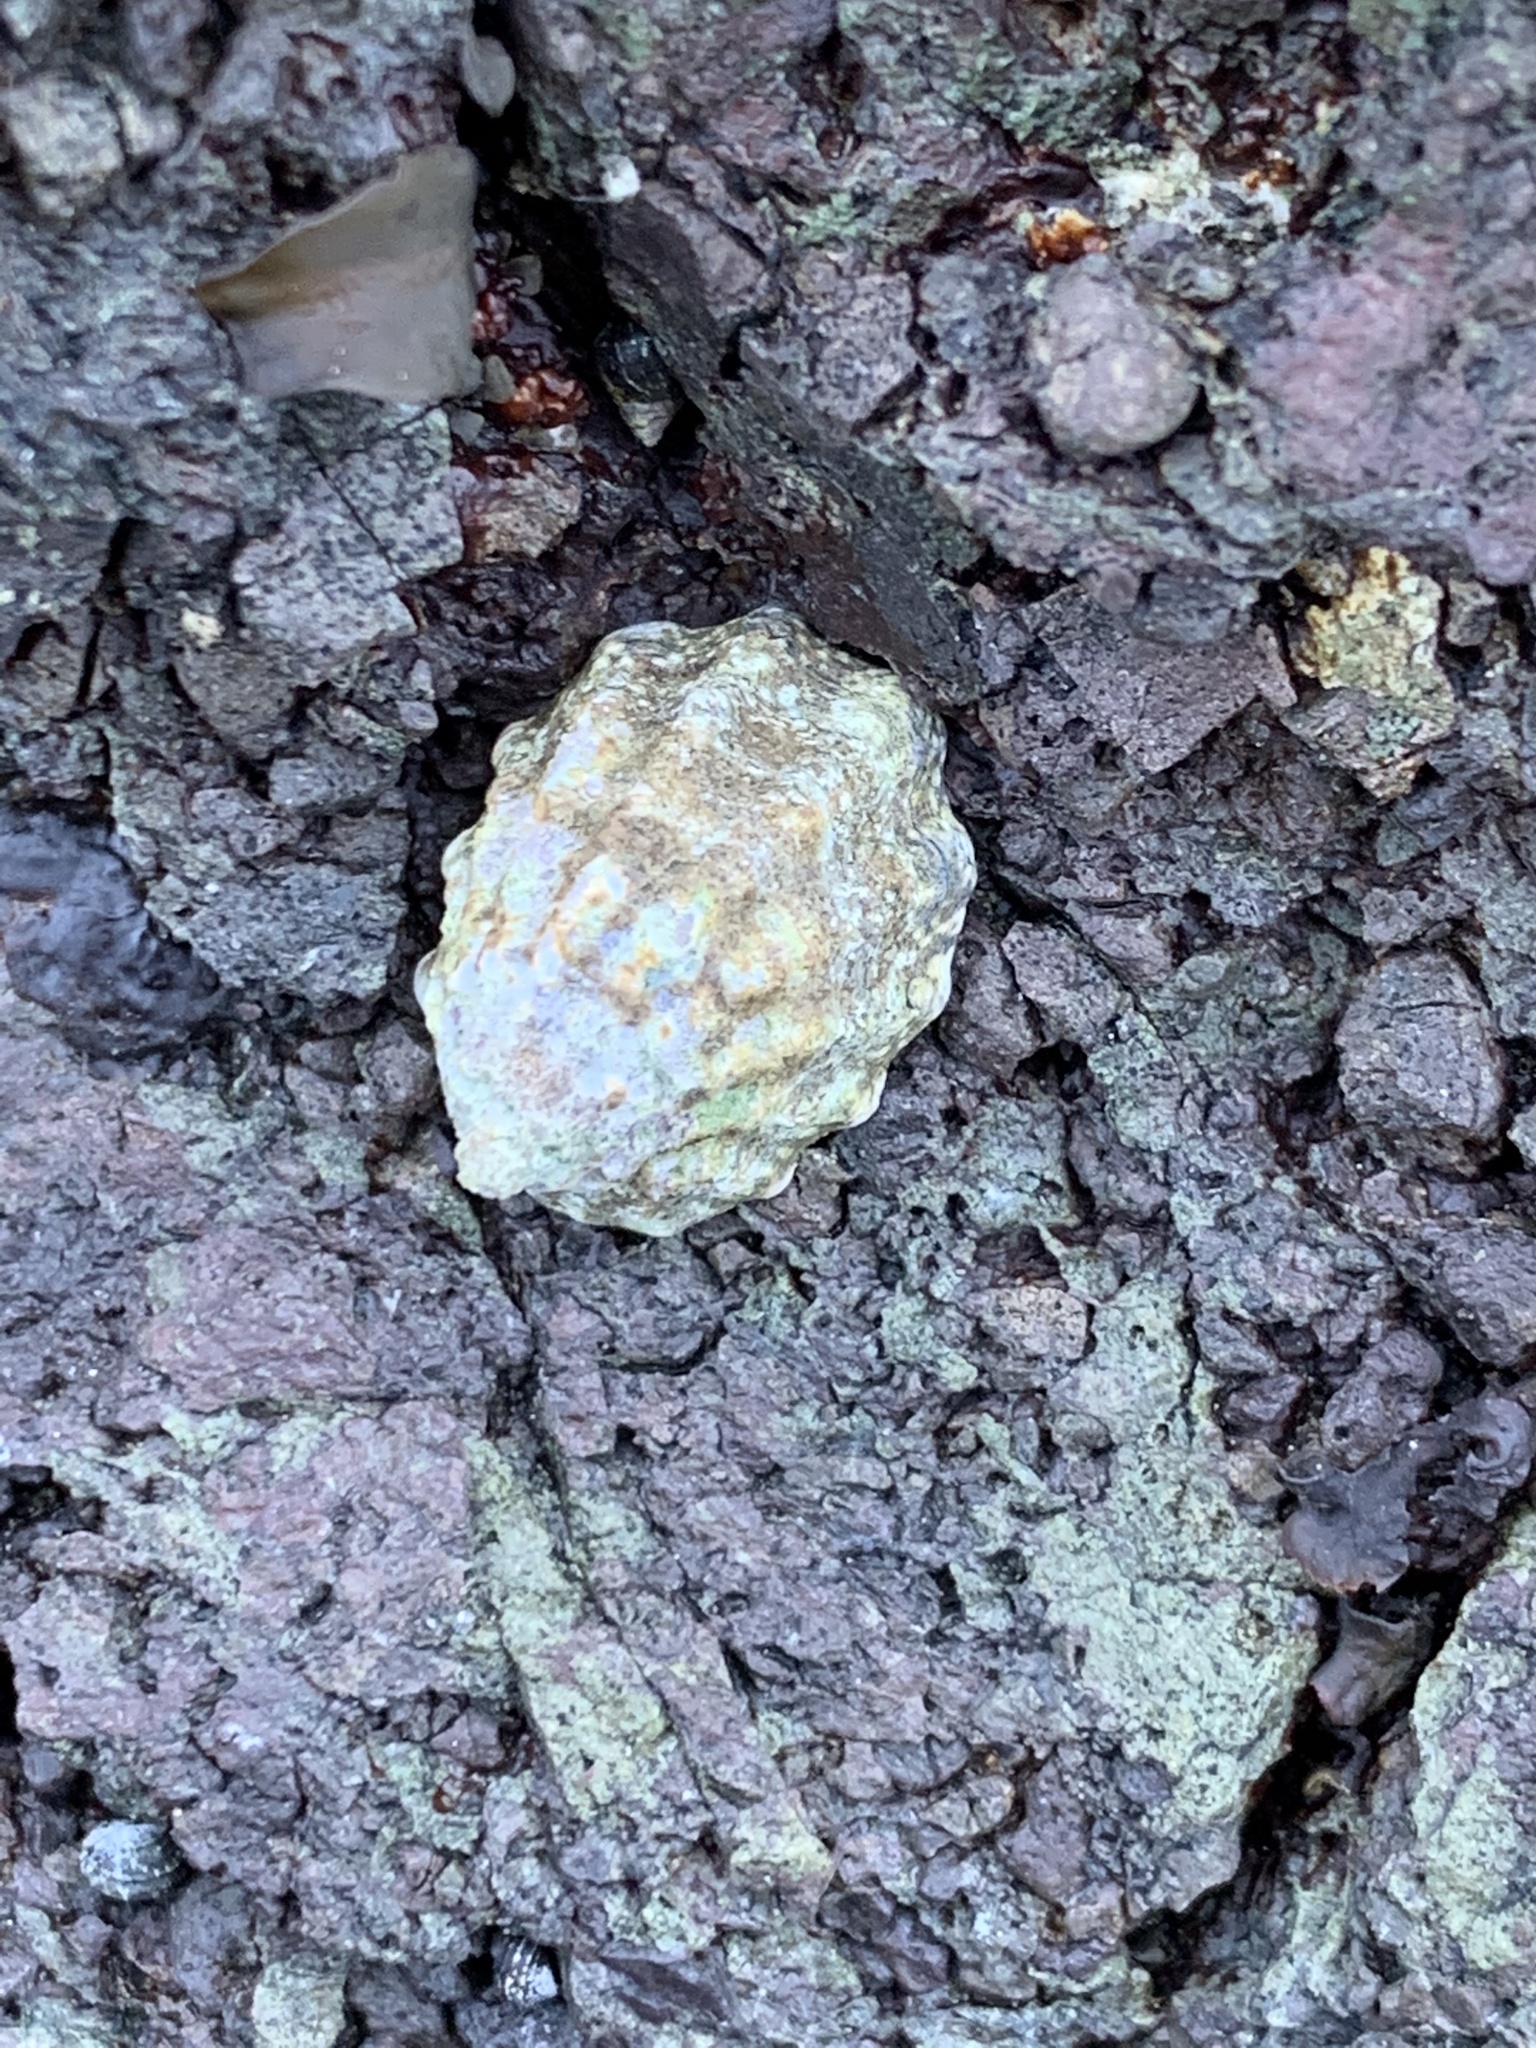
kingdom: Animalia
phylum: Mollusca
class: Gastropoda
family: Lottiidae
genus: Lottia
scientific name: Lottia digitalis
